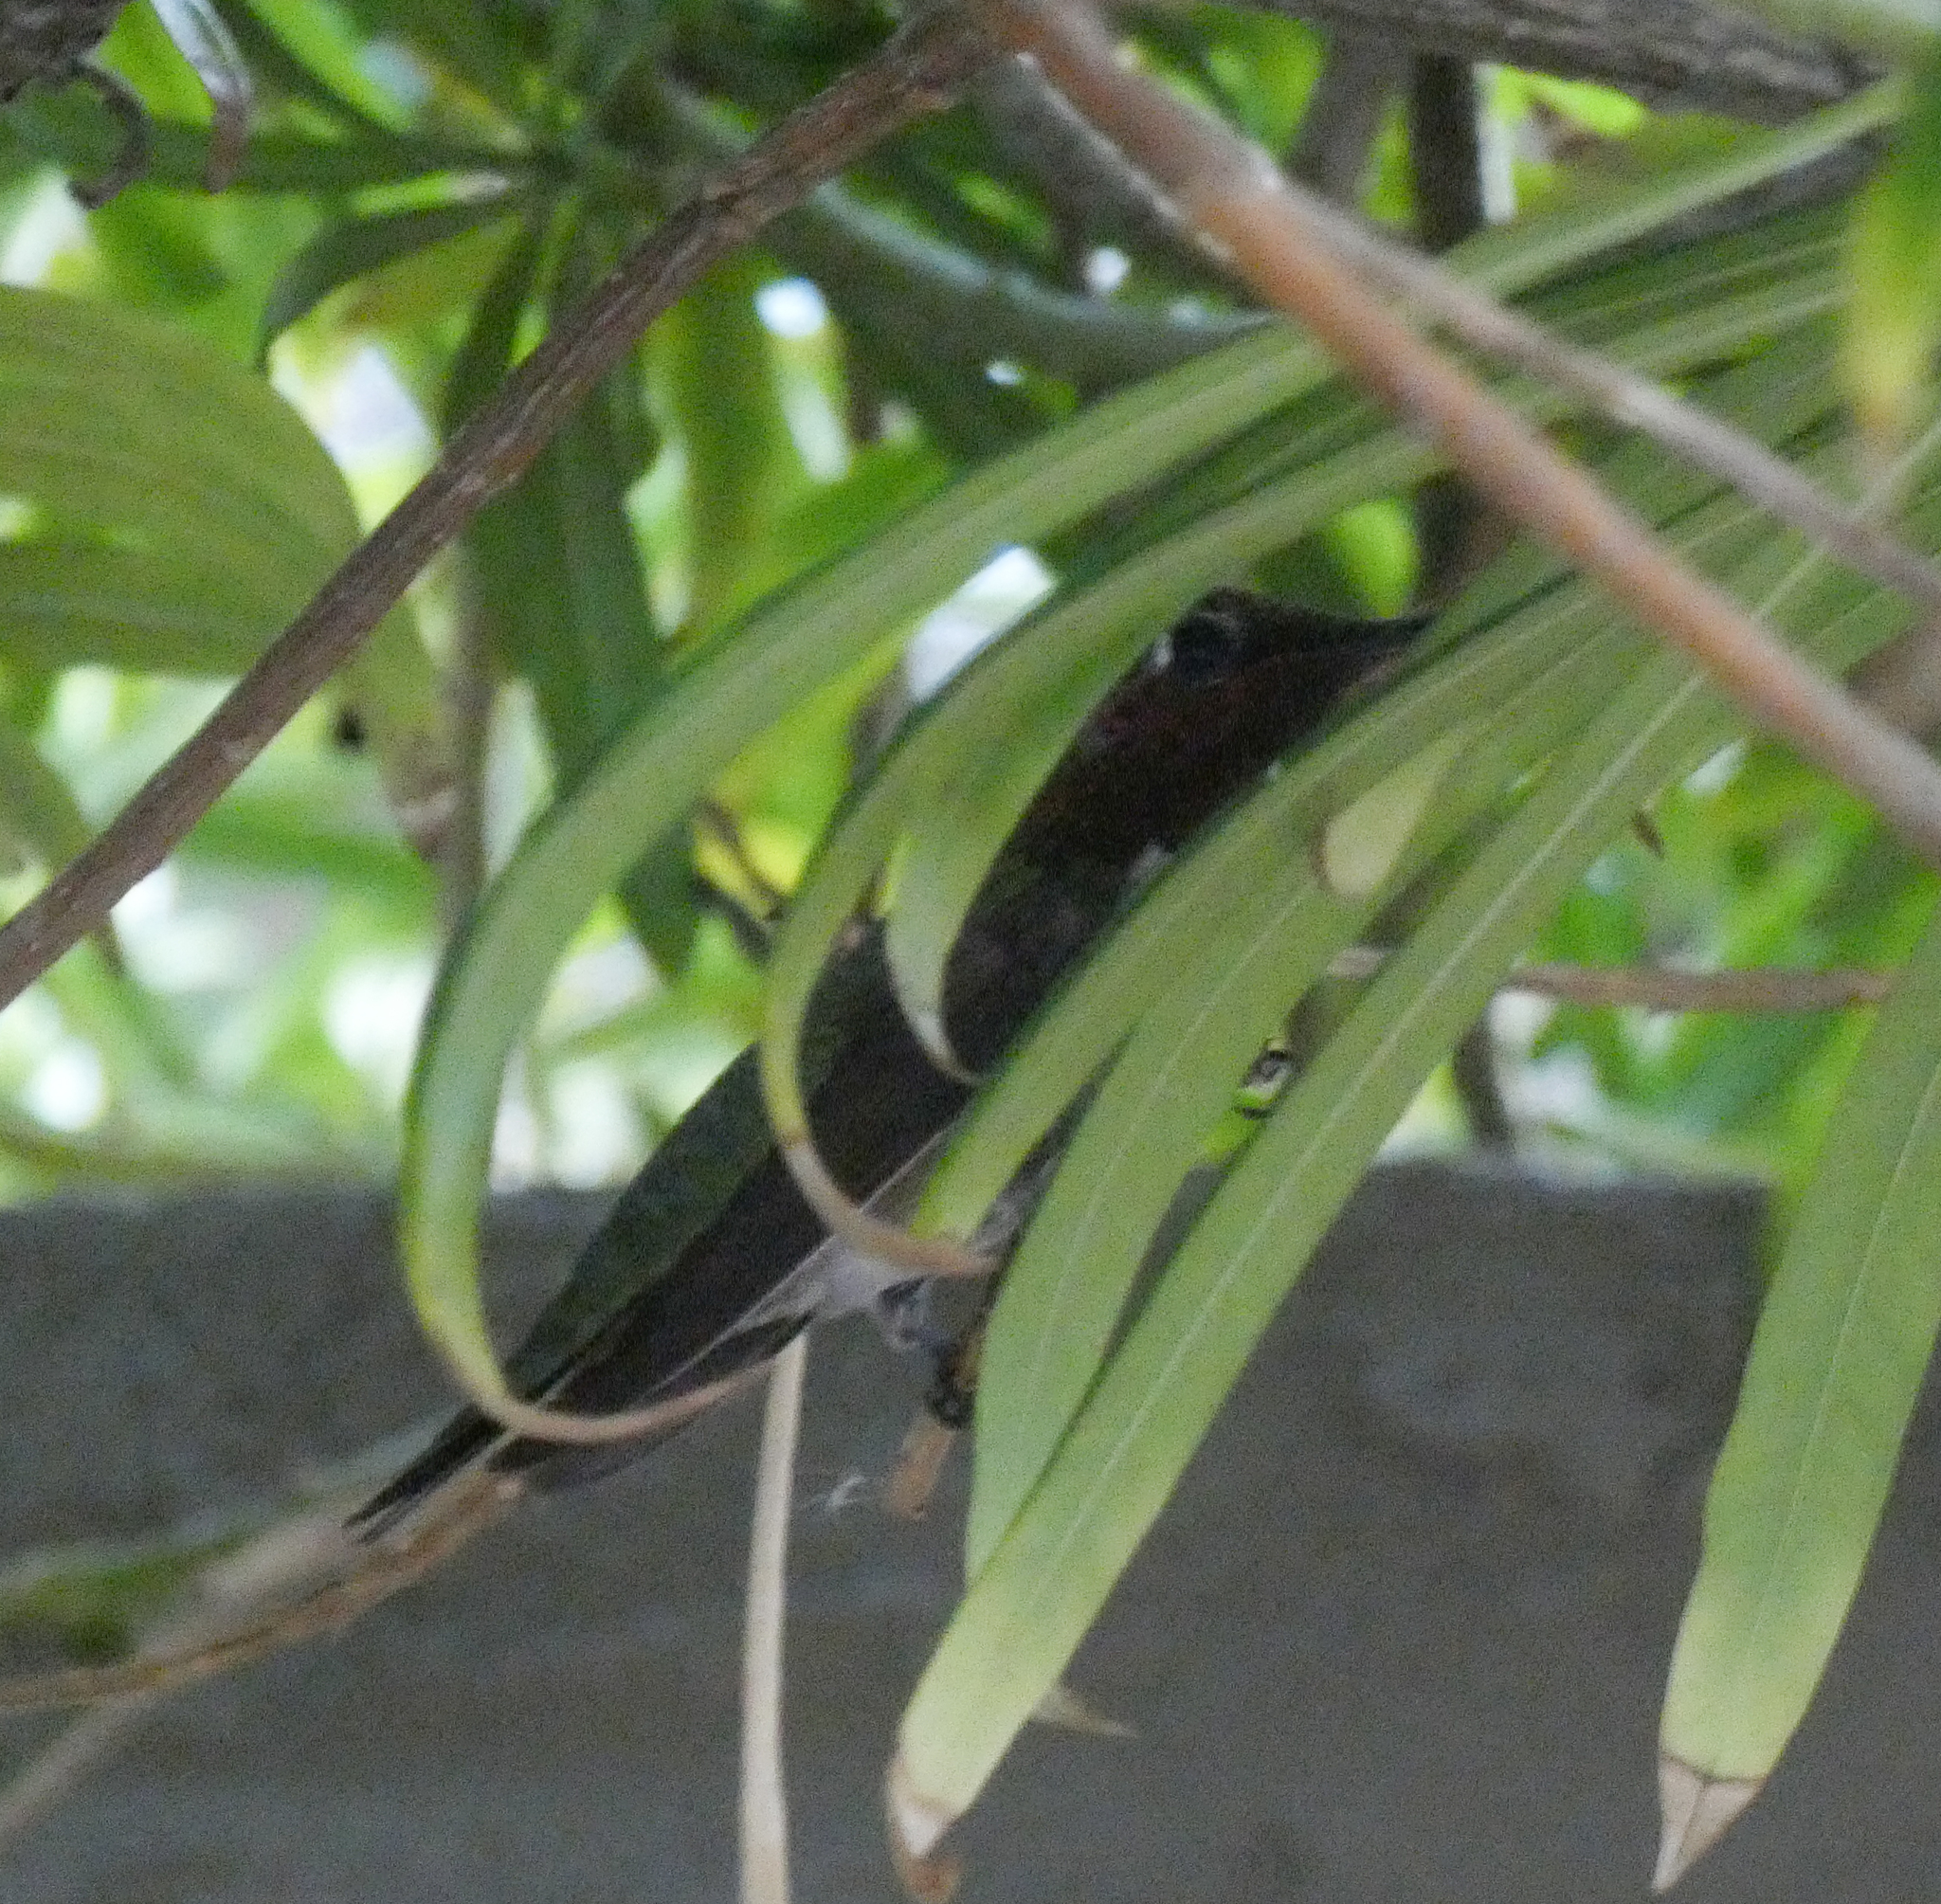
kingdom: Animalia
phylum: Chordata
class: Aves
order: Apodiformes
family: Trochilidae
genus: Calypte
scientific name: Calypte anna
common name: Anna's hummingbird
